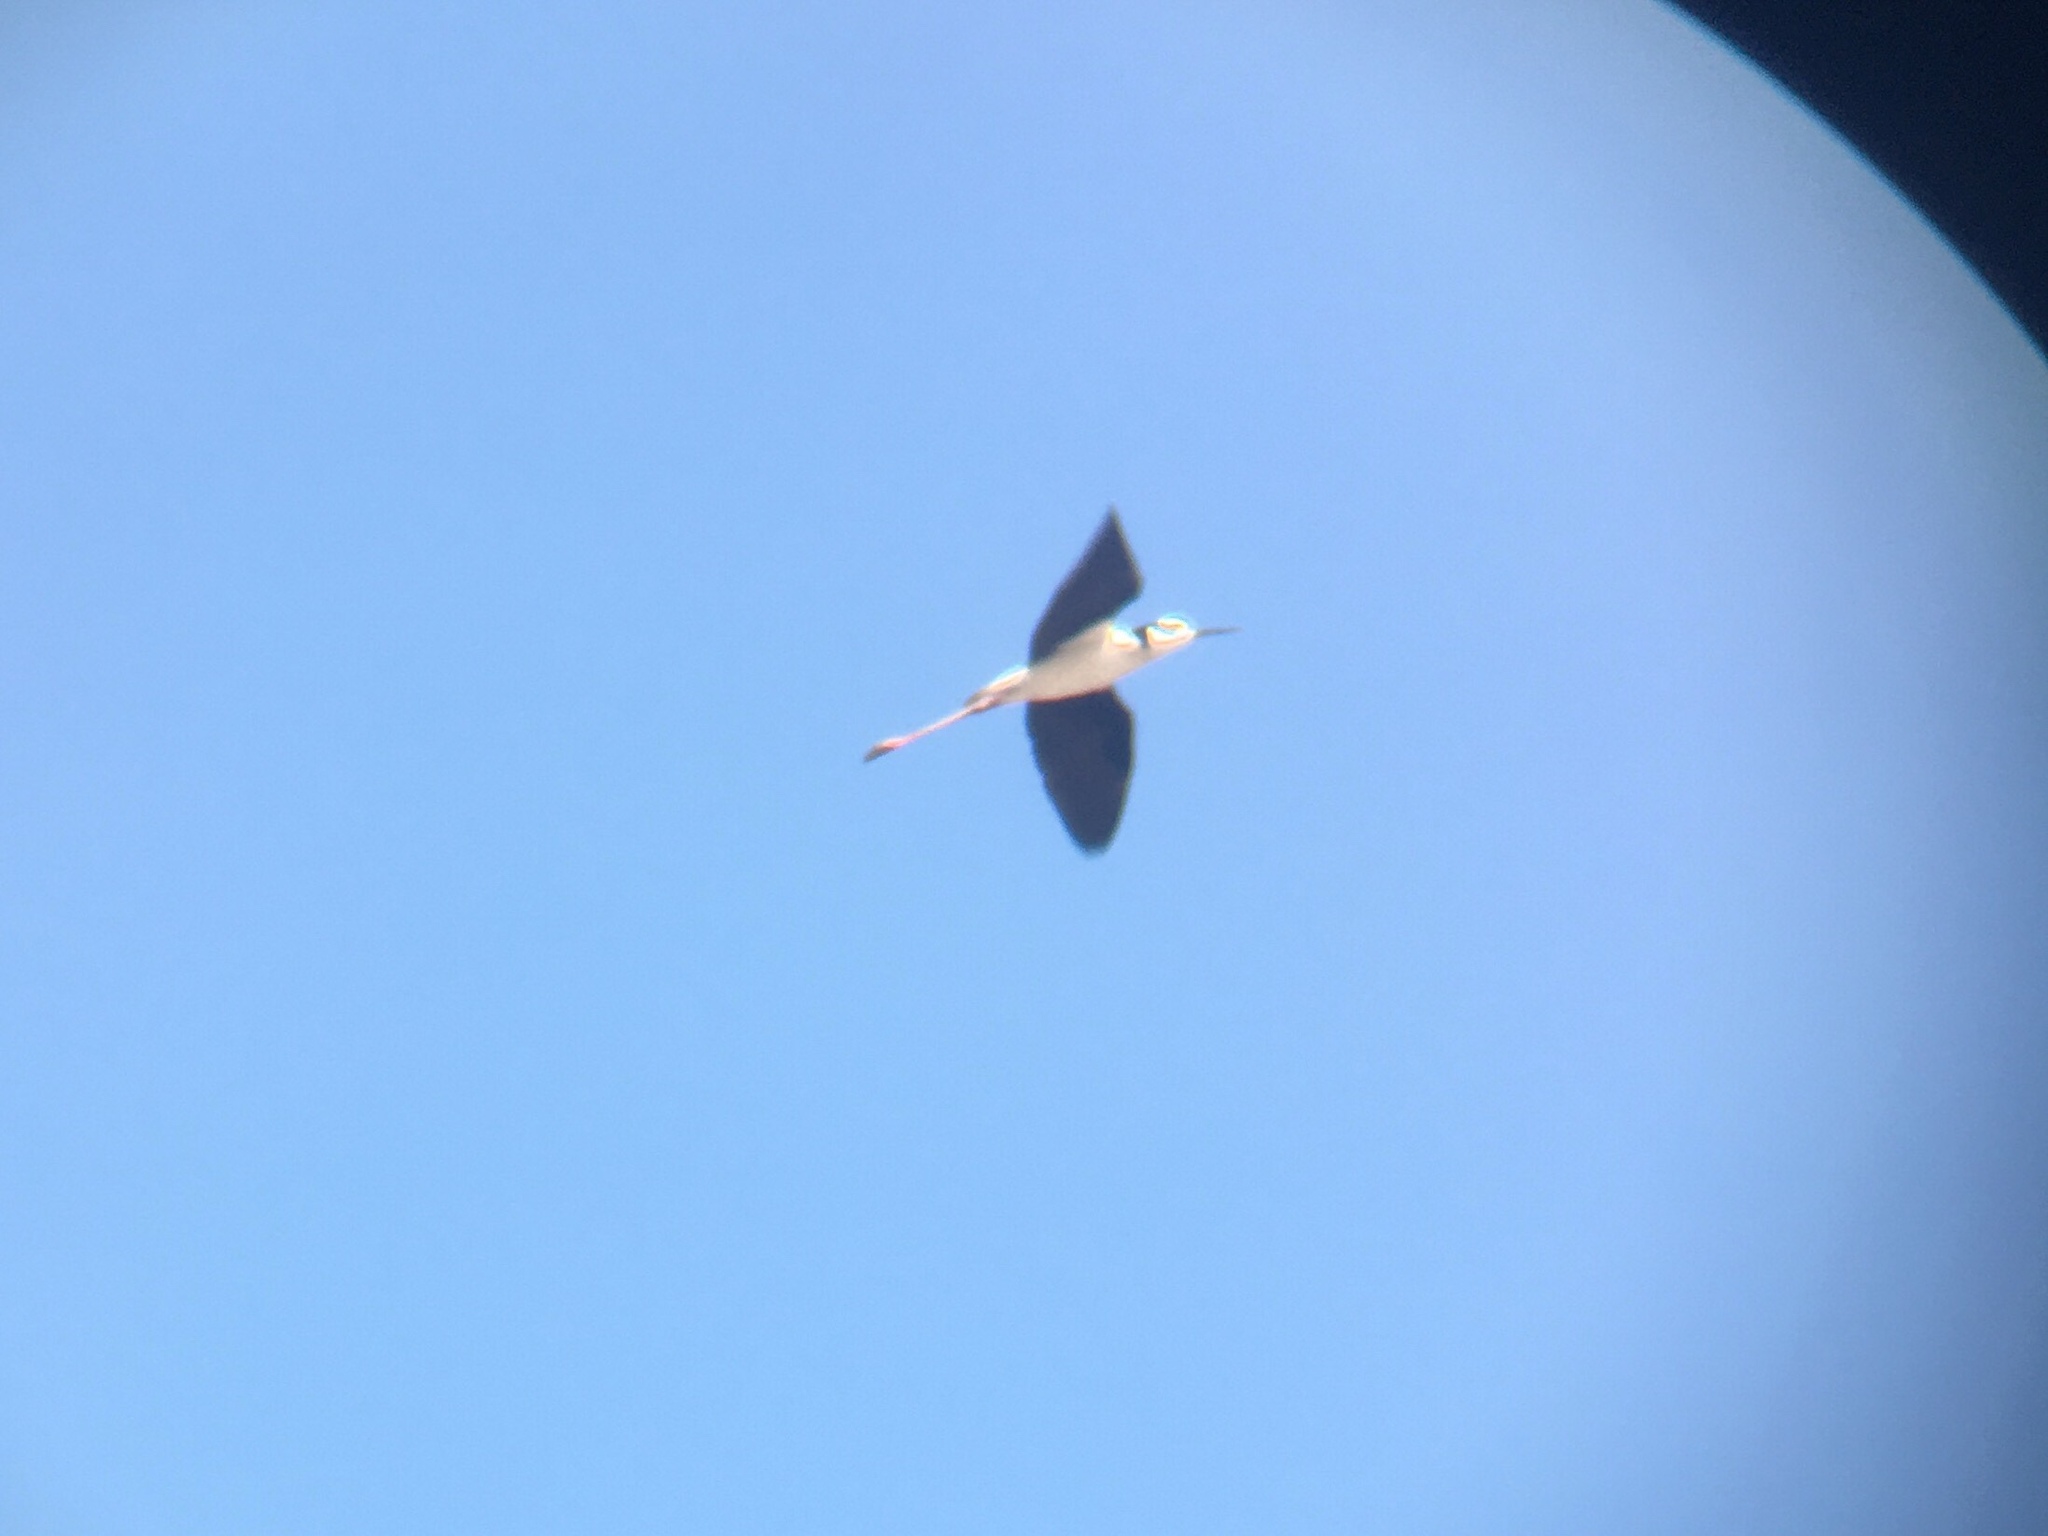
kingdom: Animalia
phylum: Chordata
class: Aves
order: Charadriiformes
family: Recurvirostridae
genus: Himantopus
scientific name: Himantopus mexicanus
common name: Black-necked stilt
